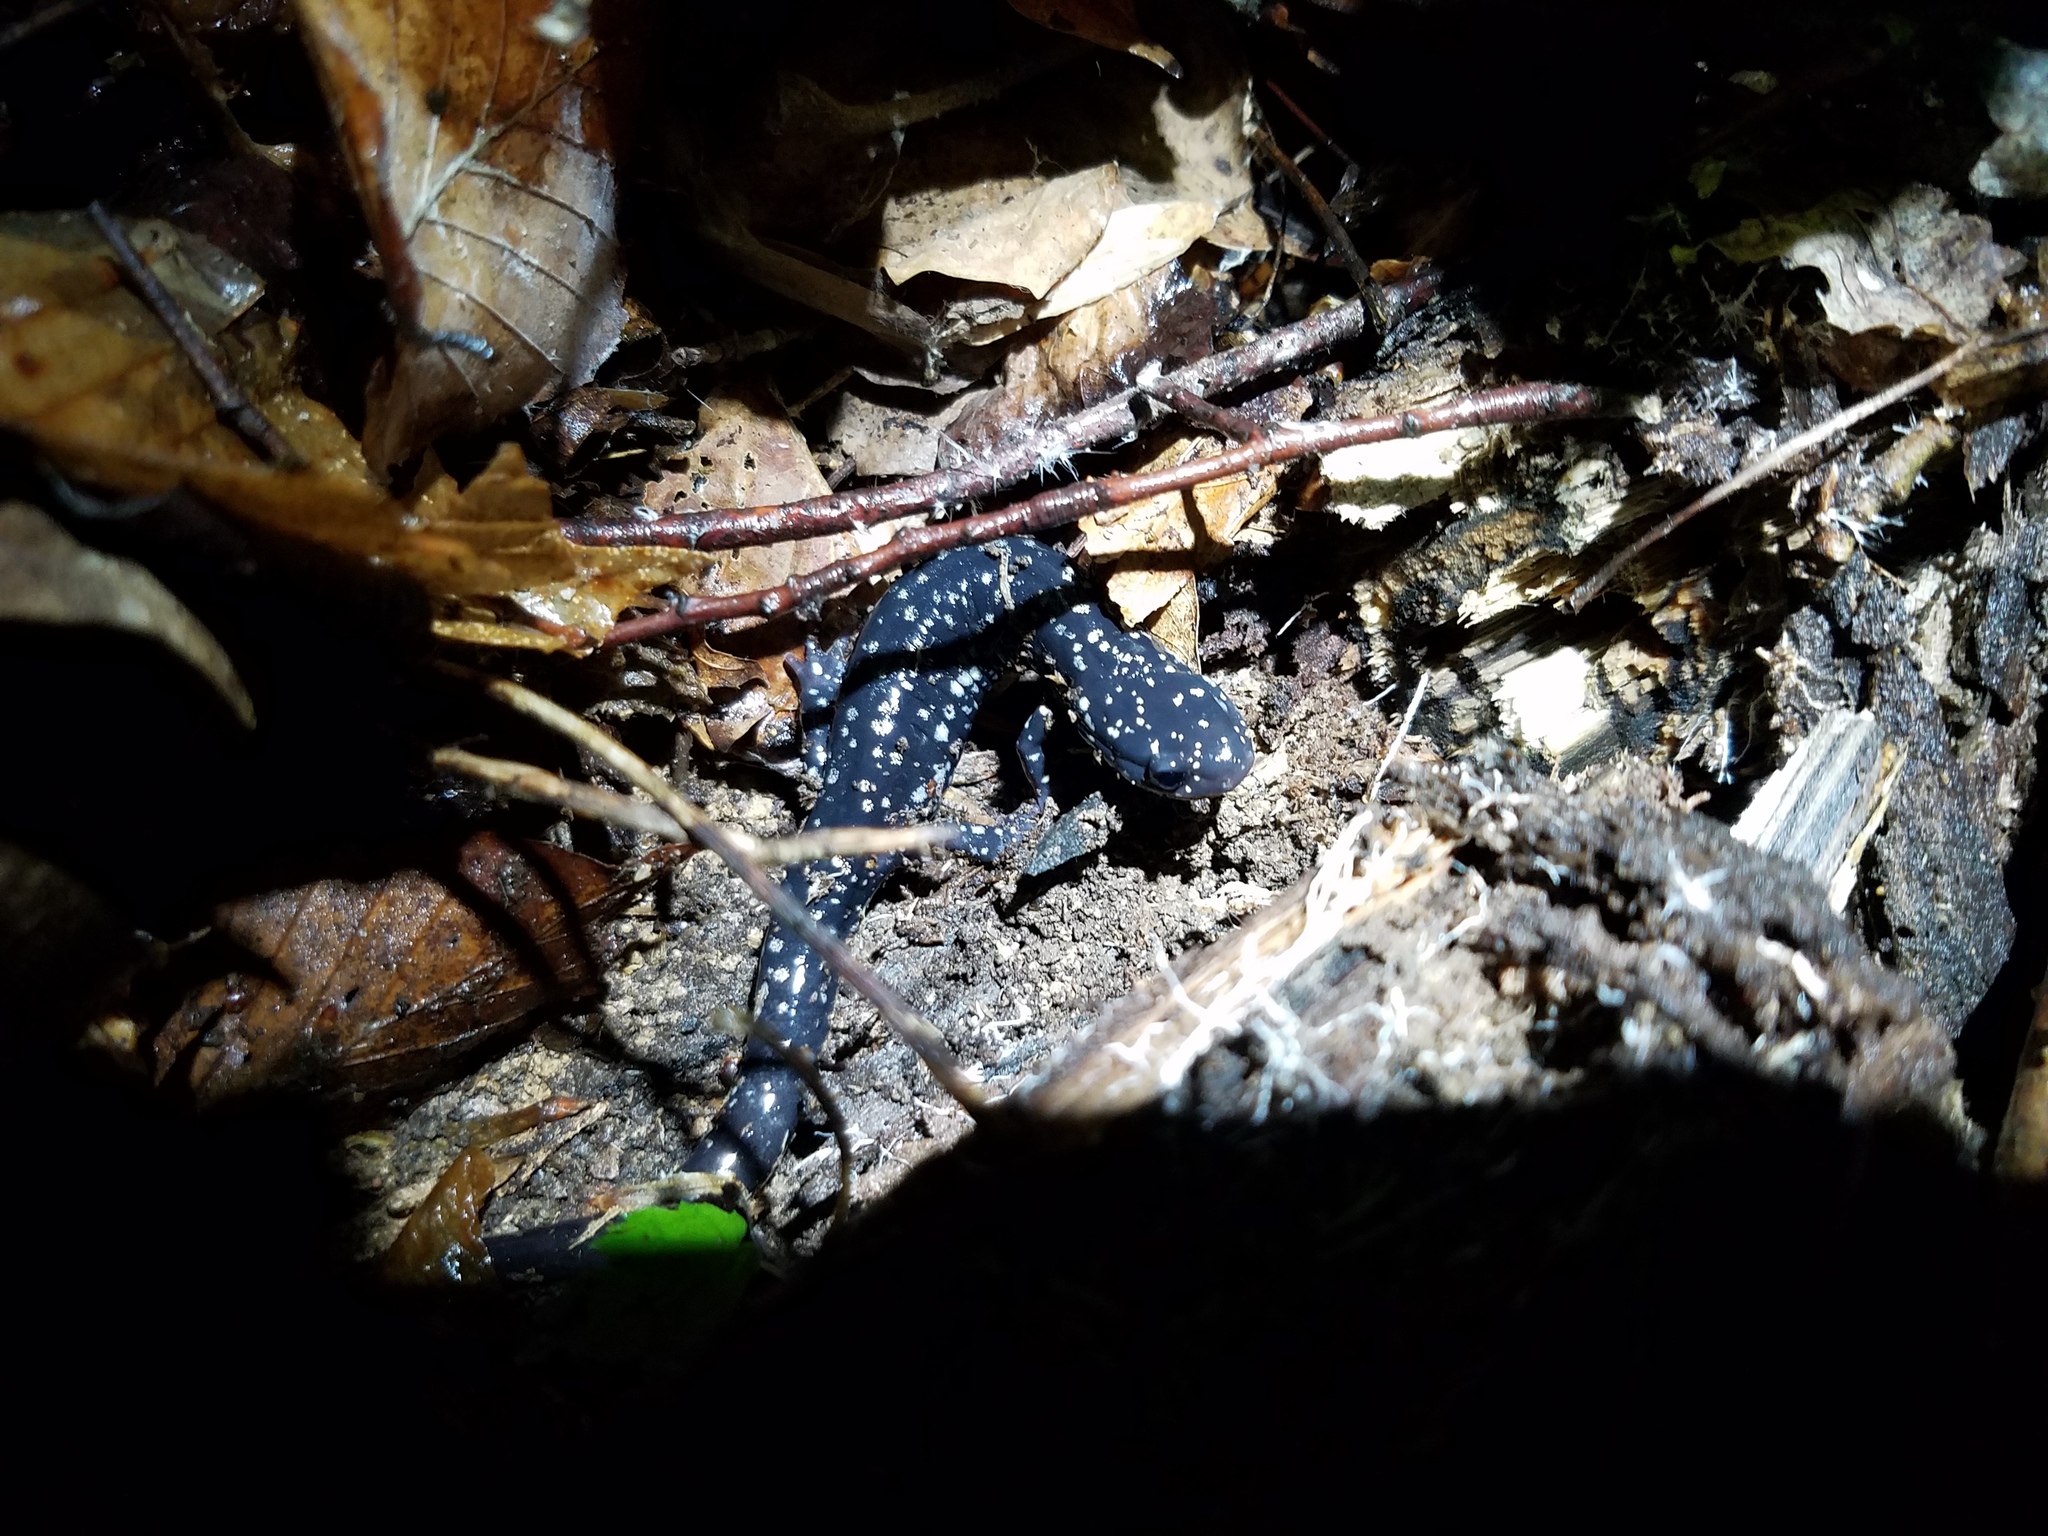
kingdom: Animalia
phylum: Chordata
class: Amphibia
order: Caudata
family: Plethodontidae
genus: Plethodon
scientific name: Plethodon glutinosus
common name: Northern slimy salamander
